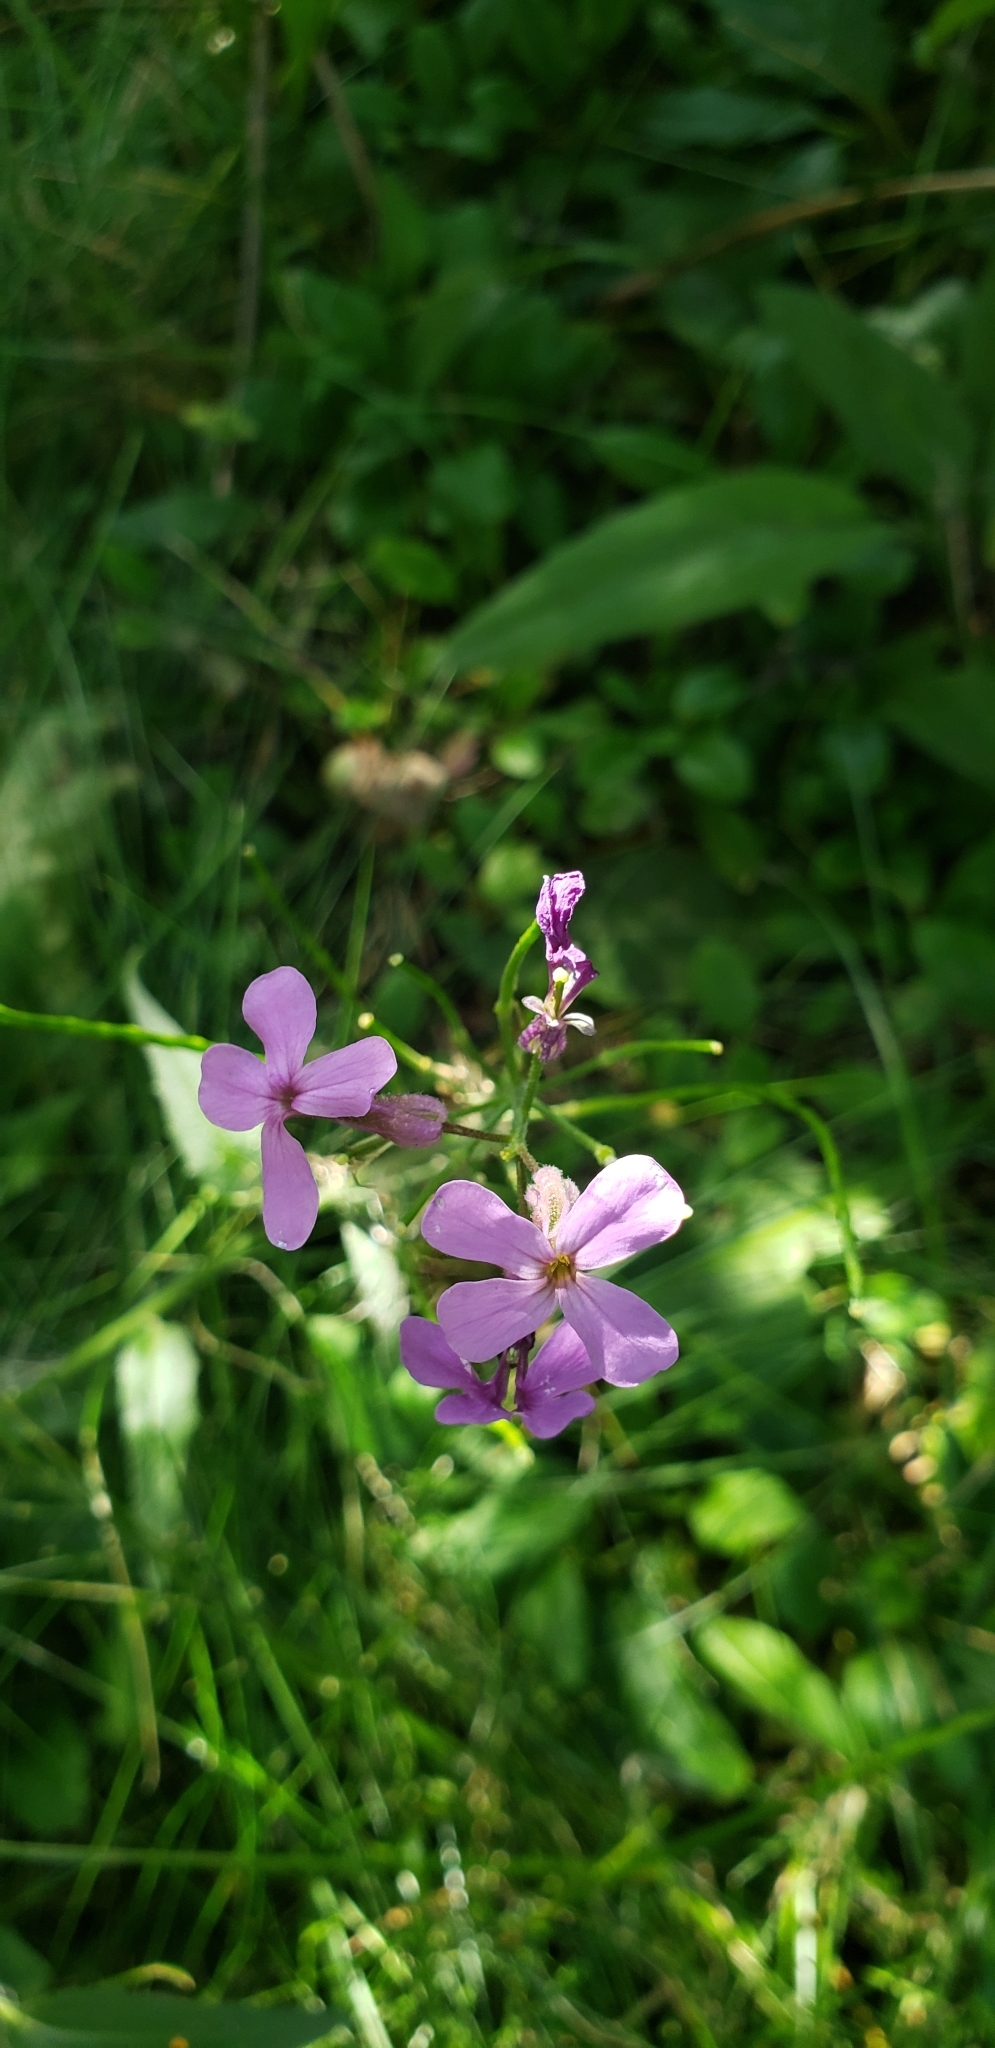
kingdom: Plantae
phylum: Tracheophyta
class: Magnoliopsida
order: Brassicales
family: Brassicaceae
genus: Hesperis
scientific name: Hesperis matronalis
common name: Dame's-violet
